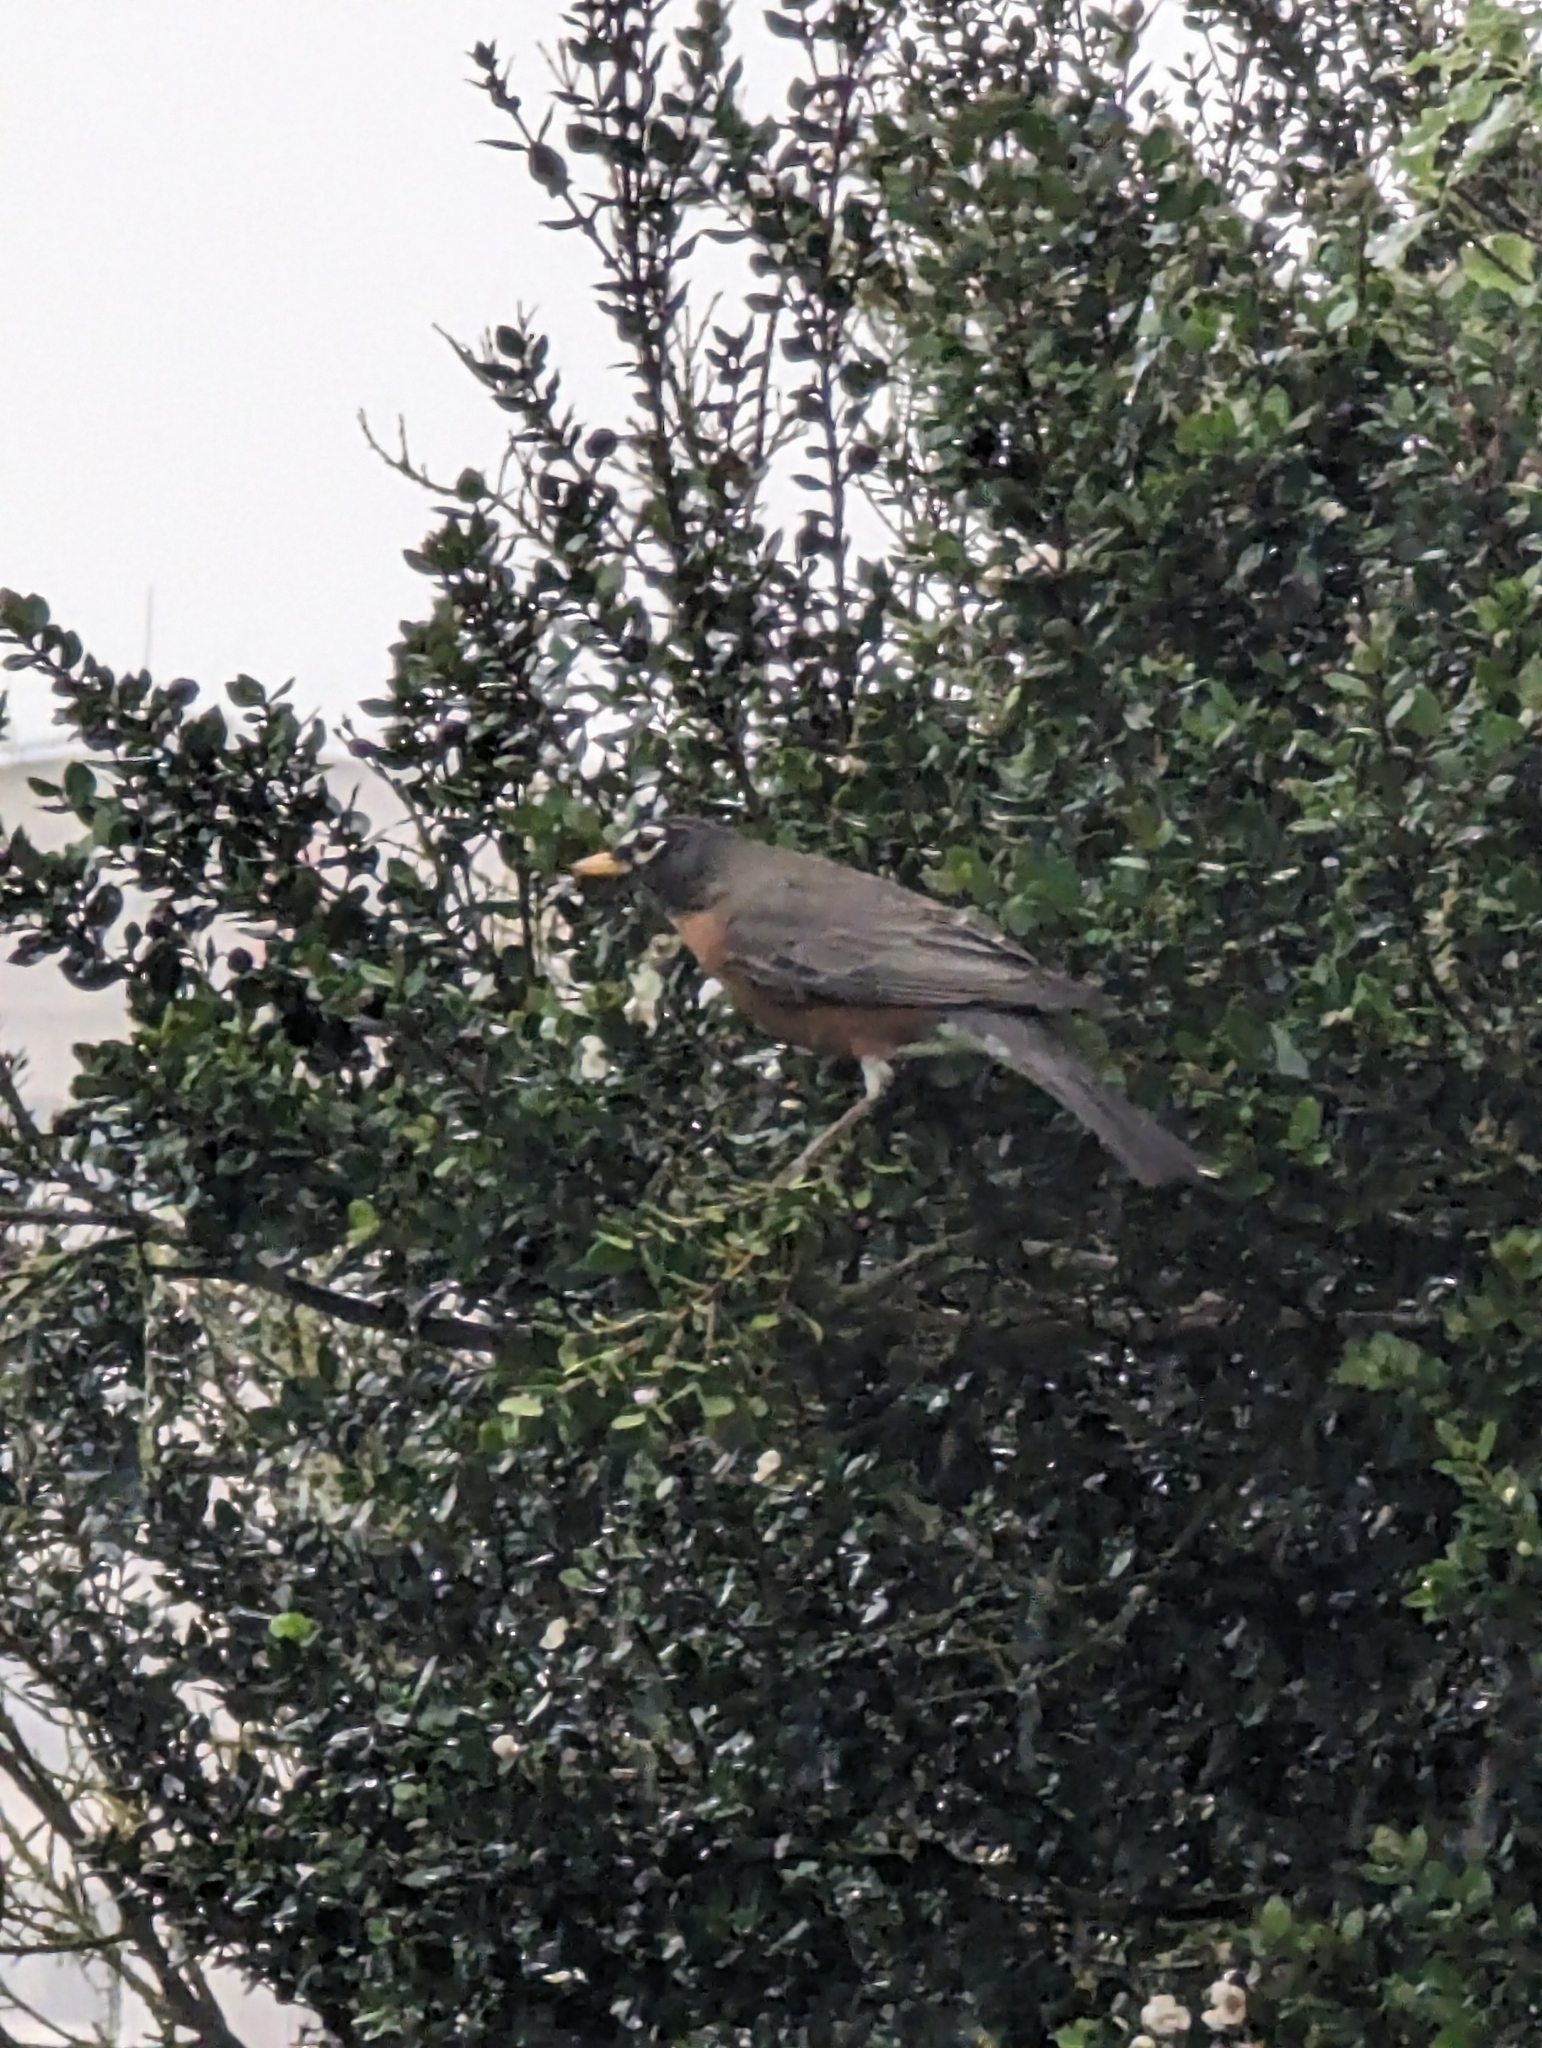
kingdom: Animalia
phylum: Chordata
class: Aves
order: Passeriformes
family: Turdidae
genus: Turdus
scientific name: Turdus migratorius
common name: American robin
